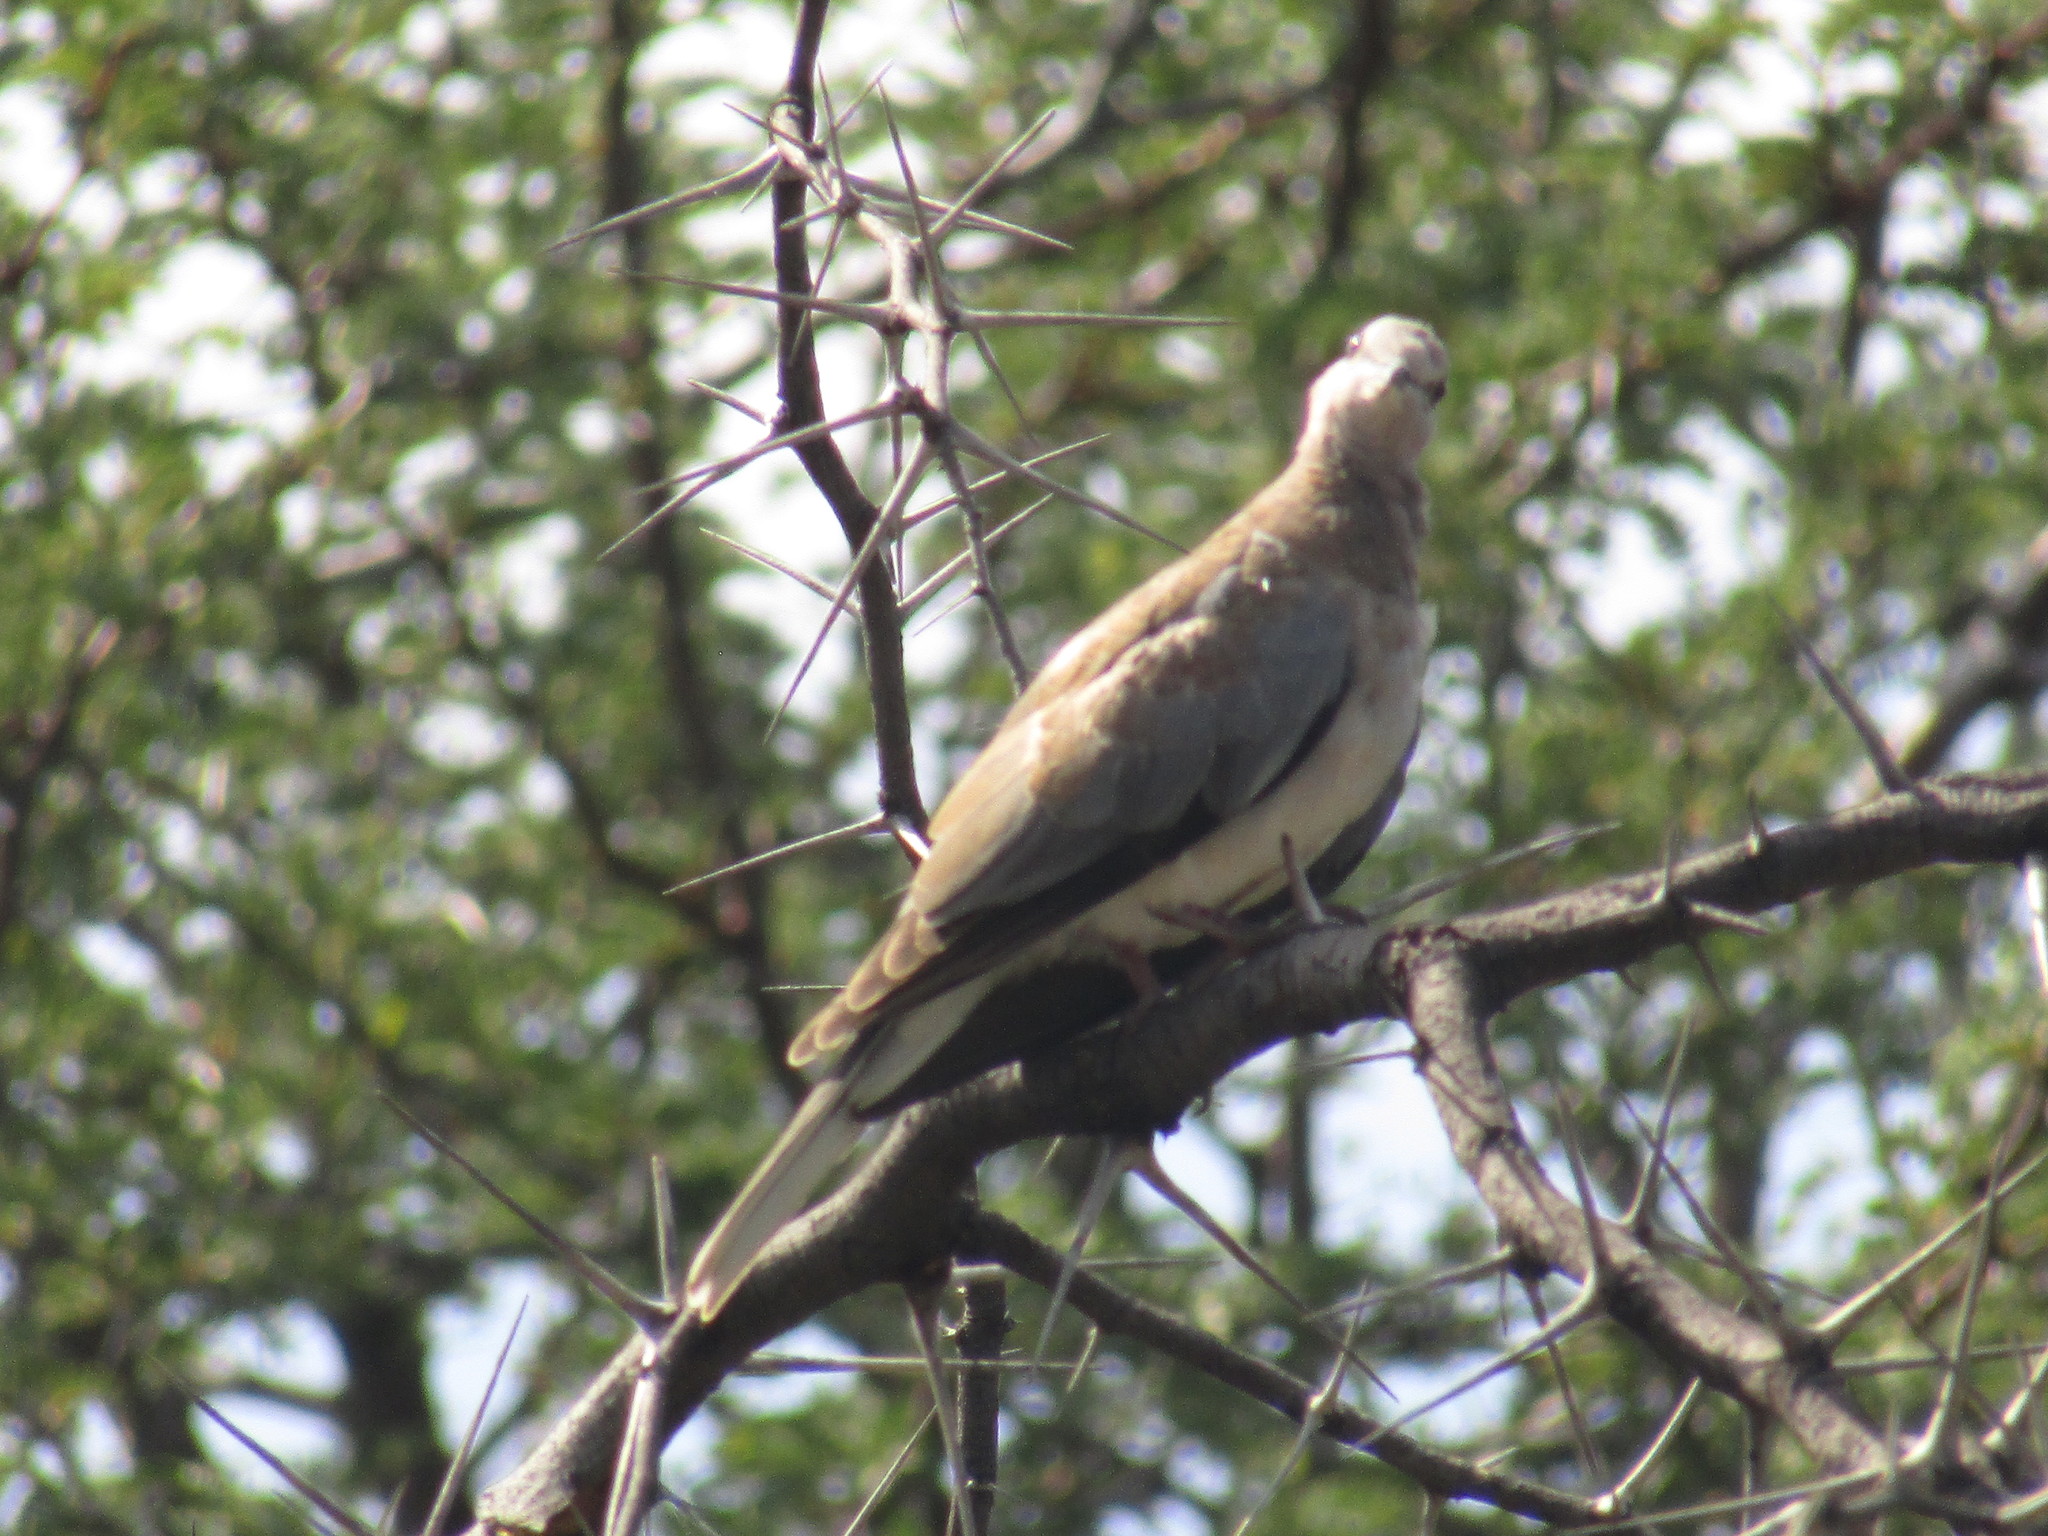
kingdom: Animalia
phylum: Chordata
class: Aves
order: Columbiformes
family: Columbidae
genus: Spilopelia
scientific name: Spilopelia senegalensis
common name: Laughing dove
